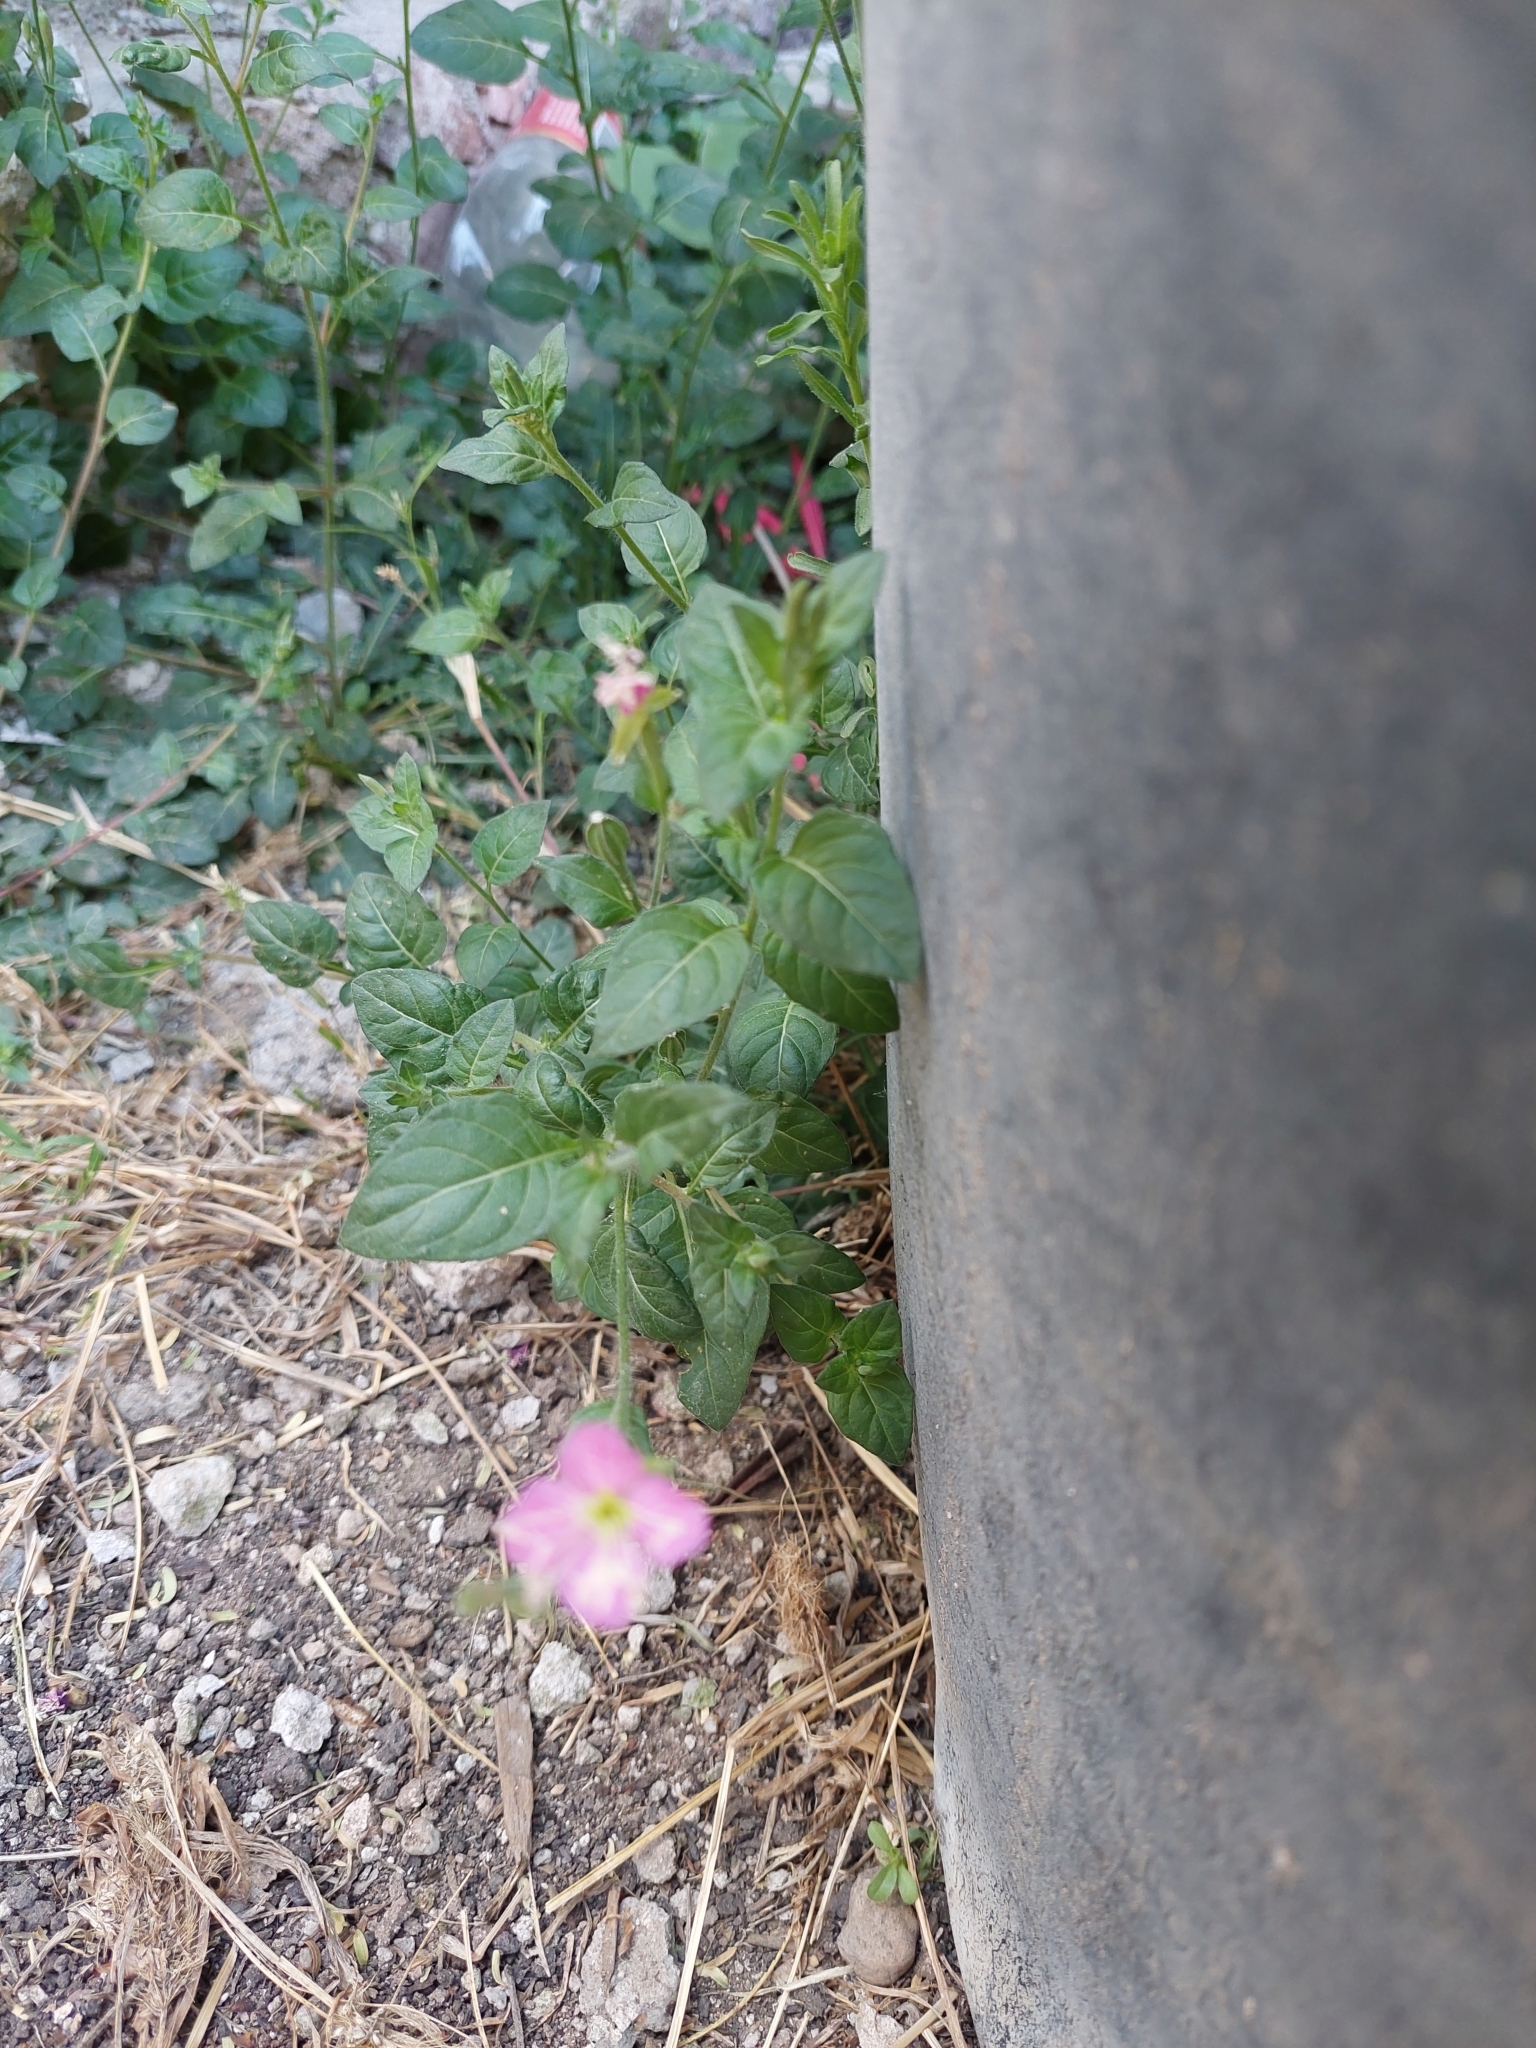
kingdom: Plantae
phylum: Tracheophyta
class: Magnoliopsida
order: Myrtales
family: Onagraceae
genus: Oenothera
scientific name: Oenothera rosea
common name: Rosy evening-primrose
